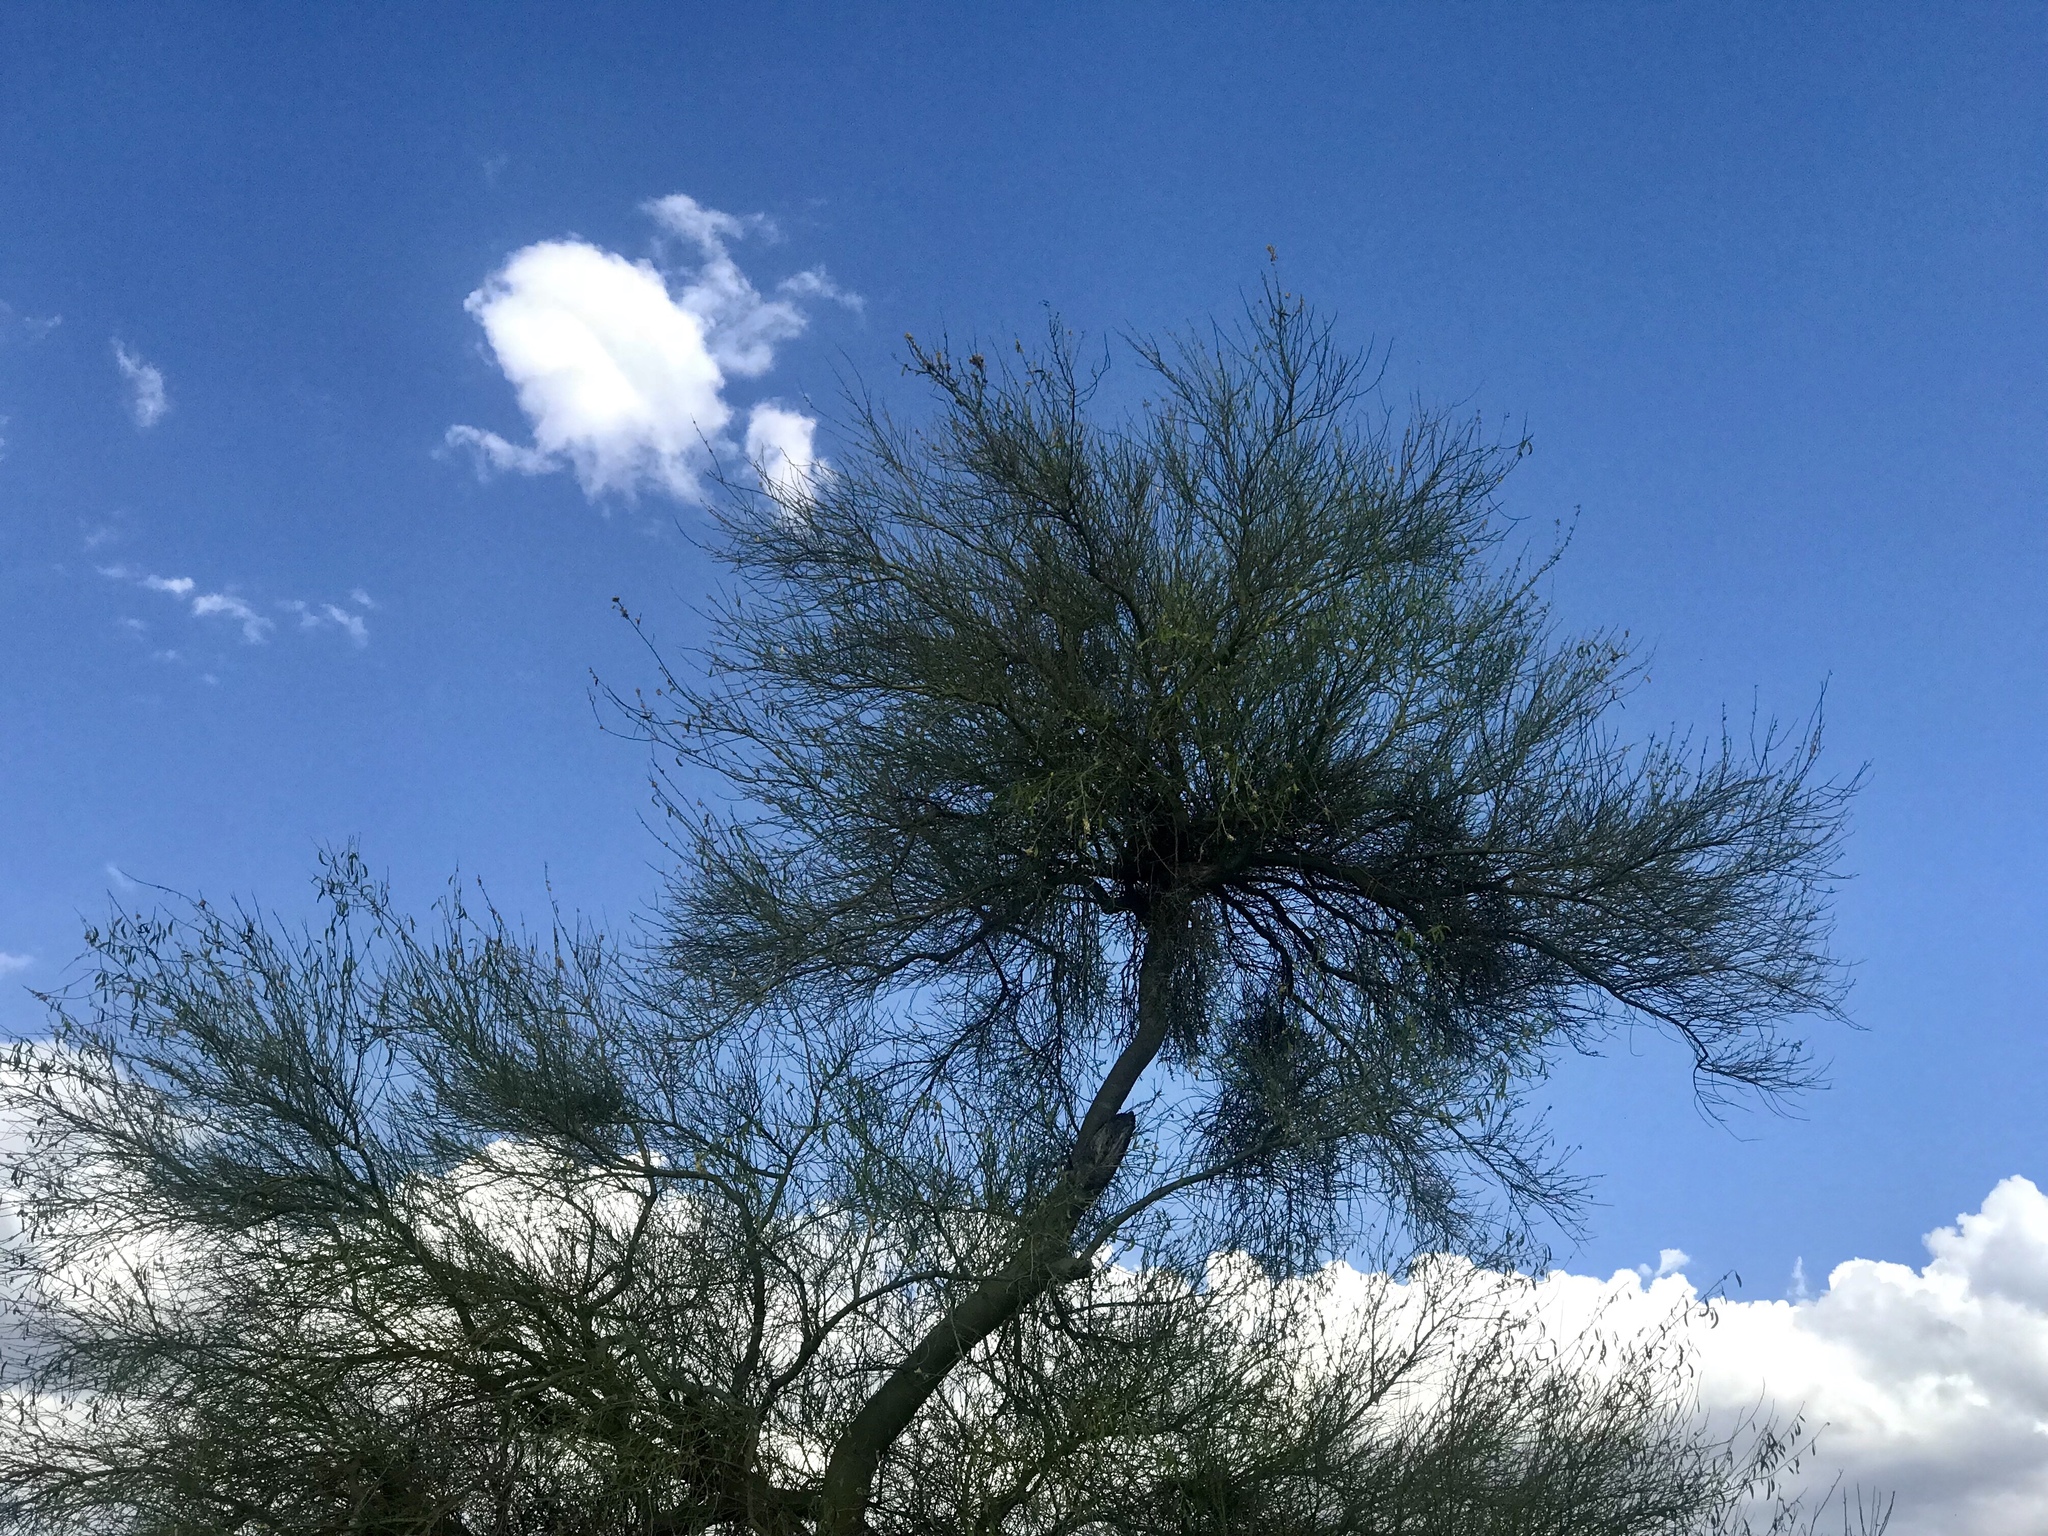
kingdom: Plantae
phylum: Tracheophyta
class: Magnoliopsida
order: Fabales
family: Fabaceae
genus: Parkinsonia
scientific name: Parkinsonia florida
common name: Blue paloverde
